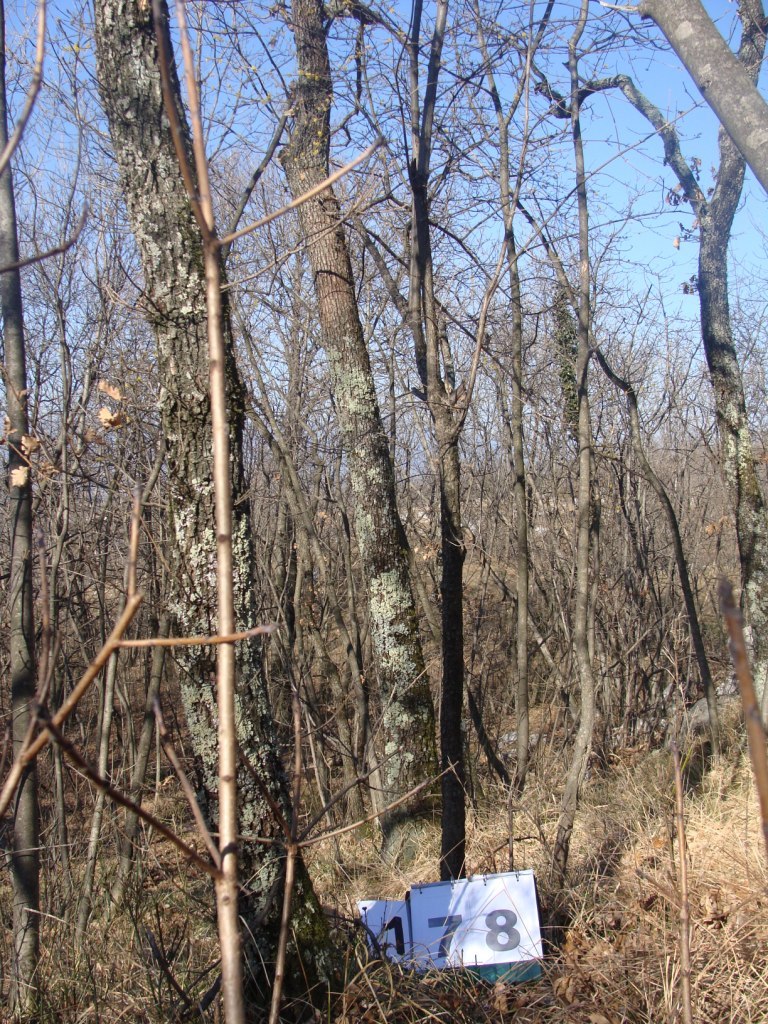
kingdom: Plantae
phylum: Tracheophyta
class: Magnoliopsida
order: Cornales
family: Cornaceae
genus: Cornus
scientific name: Cornus mas
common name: Cornelian-cherry
